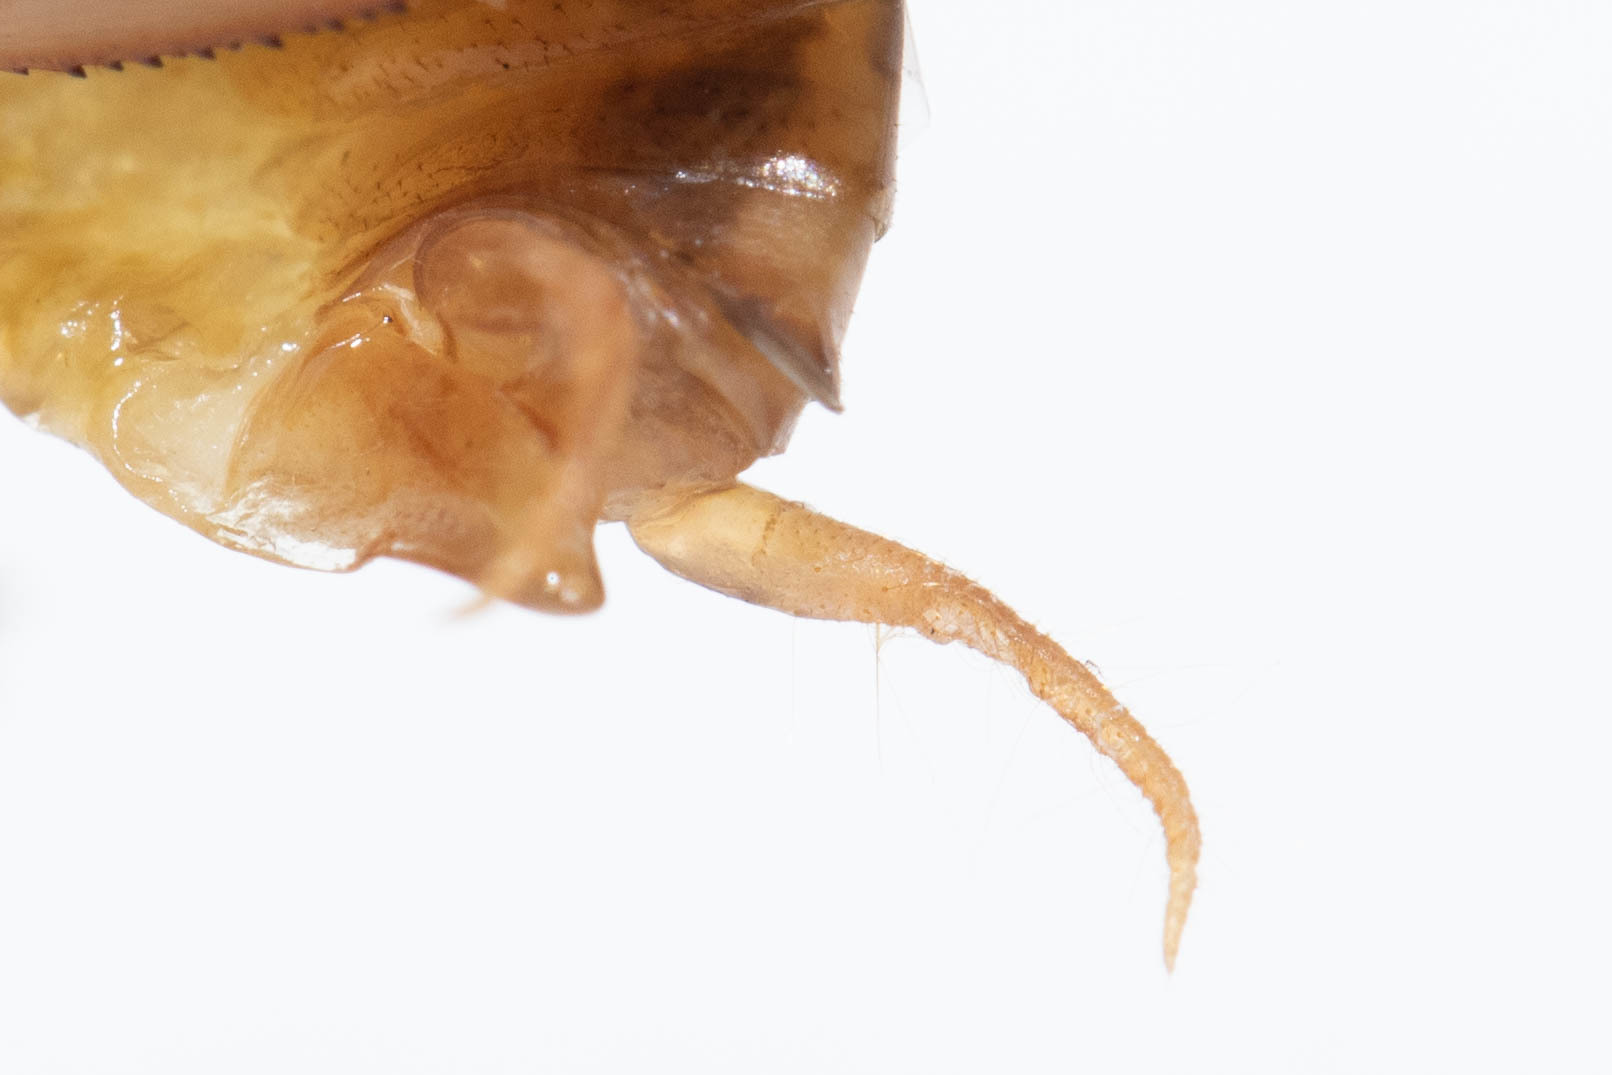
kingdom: Animalia
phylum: Arthropoda
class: Insecta
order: Orthoptera
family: Rhaphidophoridae
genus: Ceuthophilus
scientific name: Ceuthophilus vicinus
